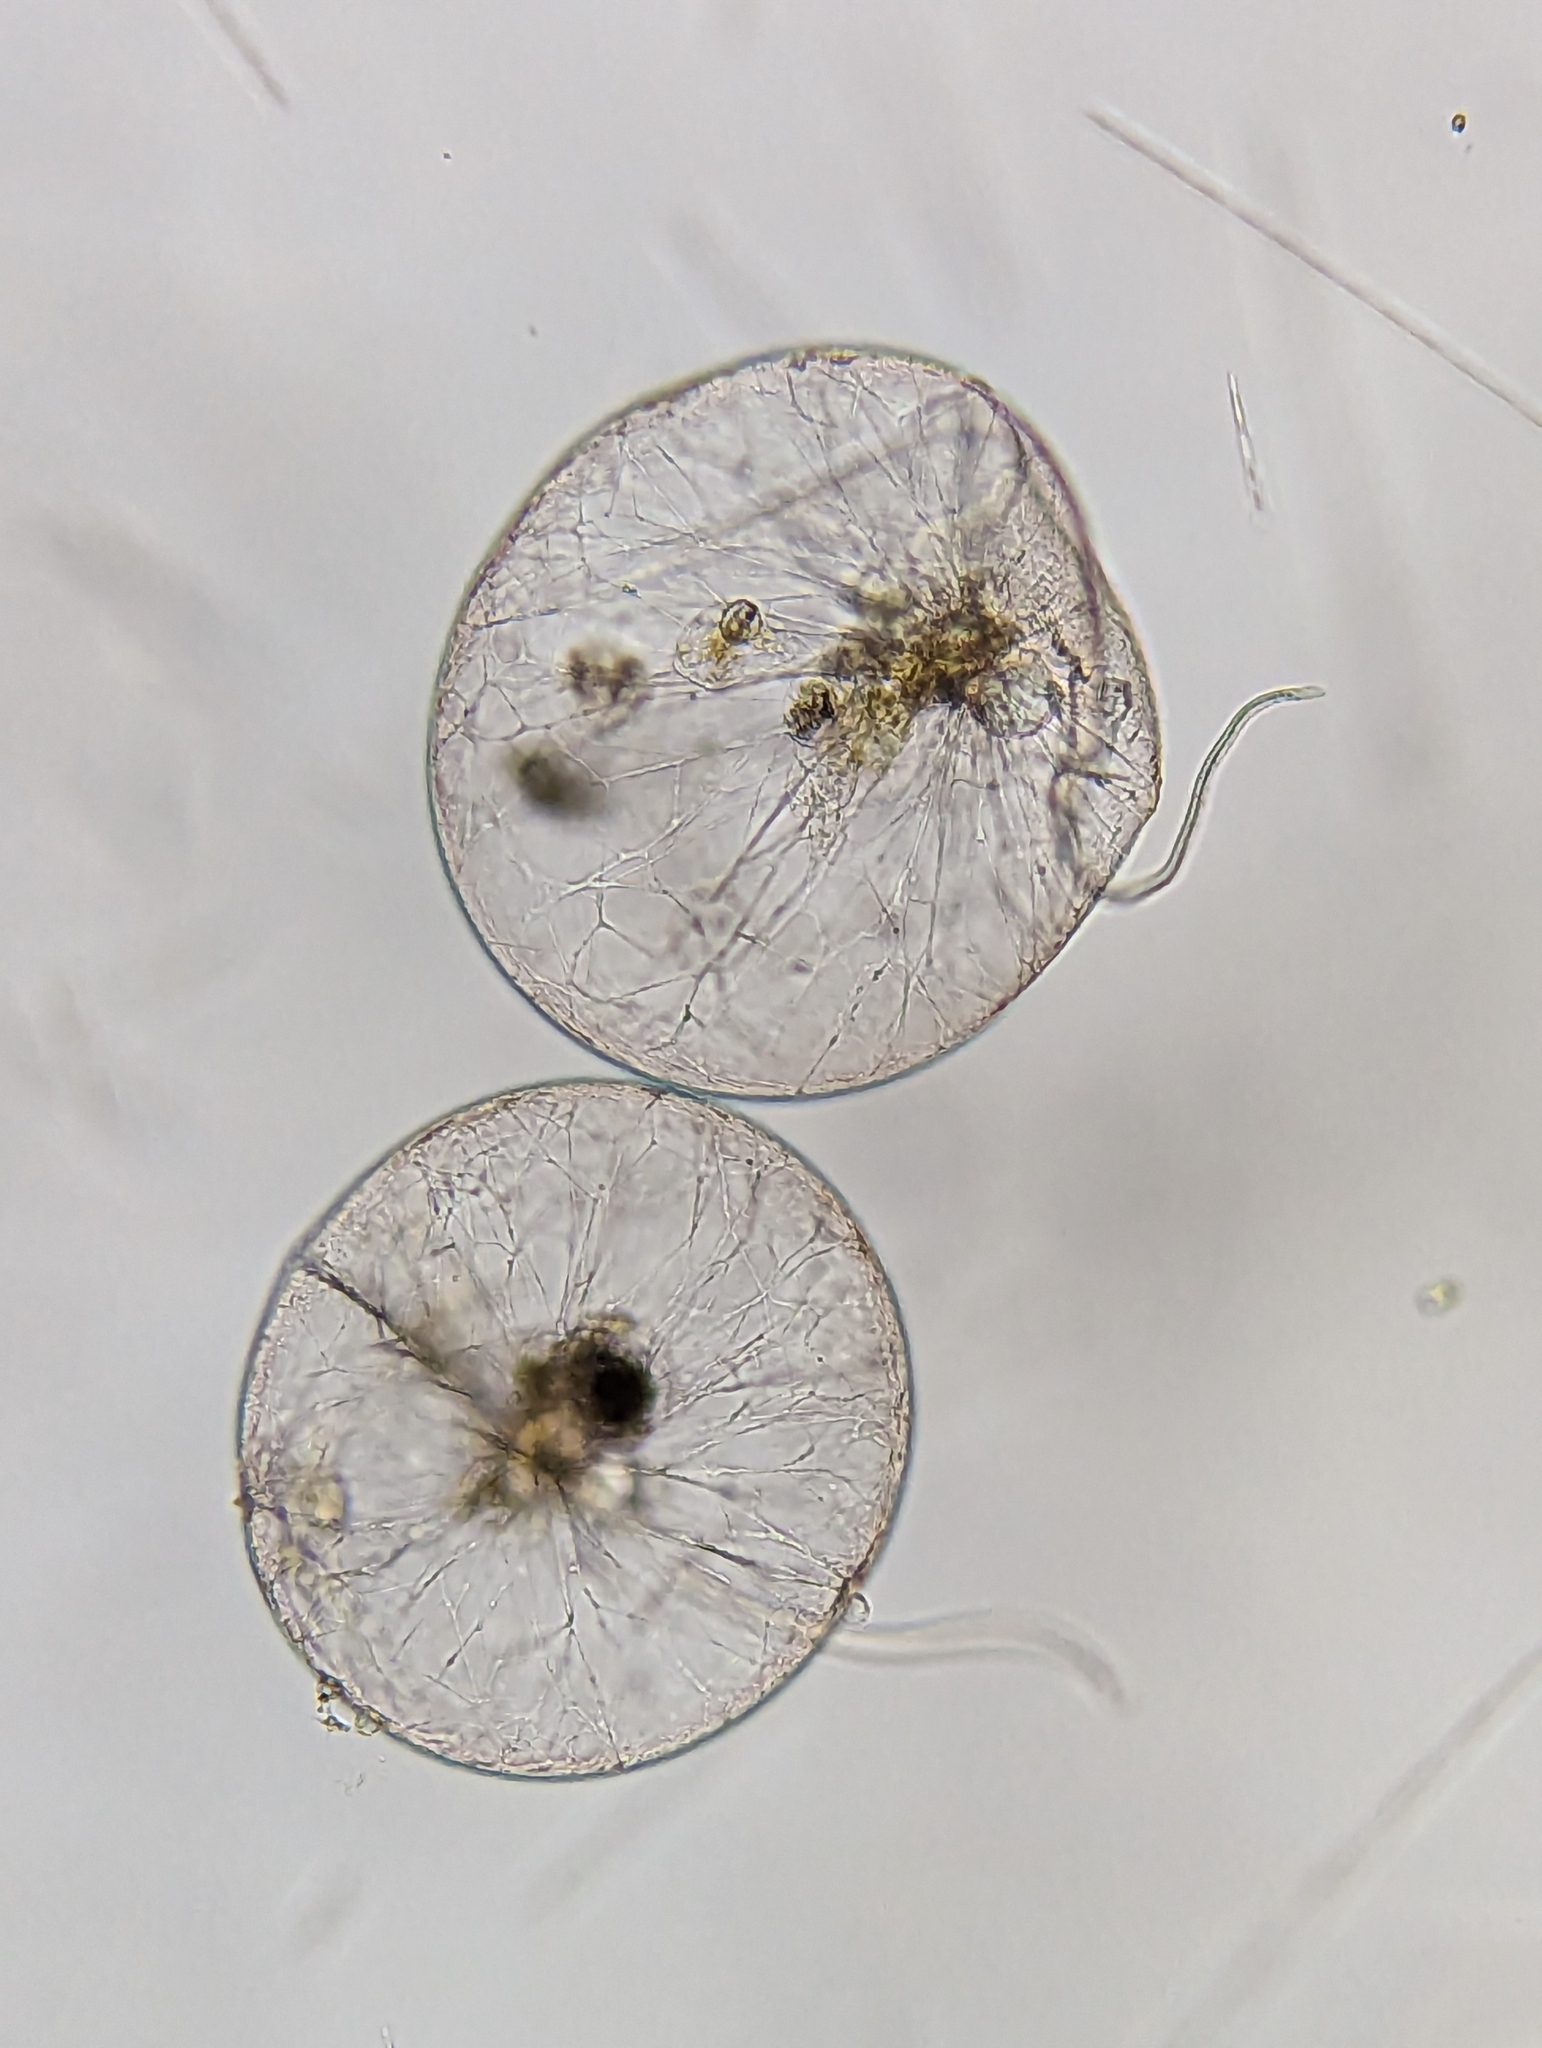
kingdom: Chromista
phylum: Myzozoa
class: Dinophyceae
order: Noctilucales
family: Noctilucaceae
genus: Noctiluca
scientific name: Noctiluca scintillans
